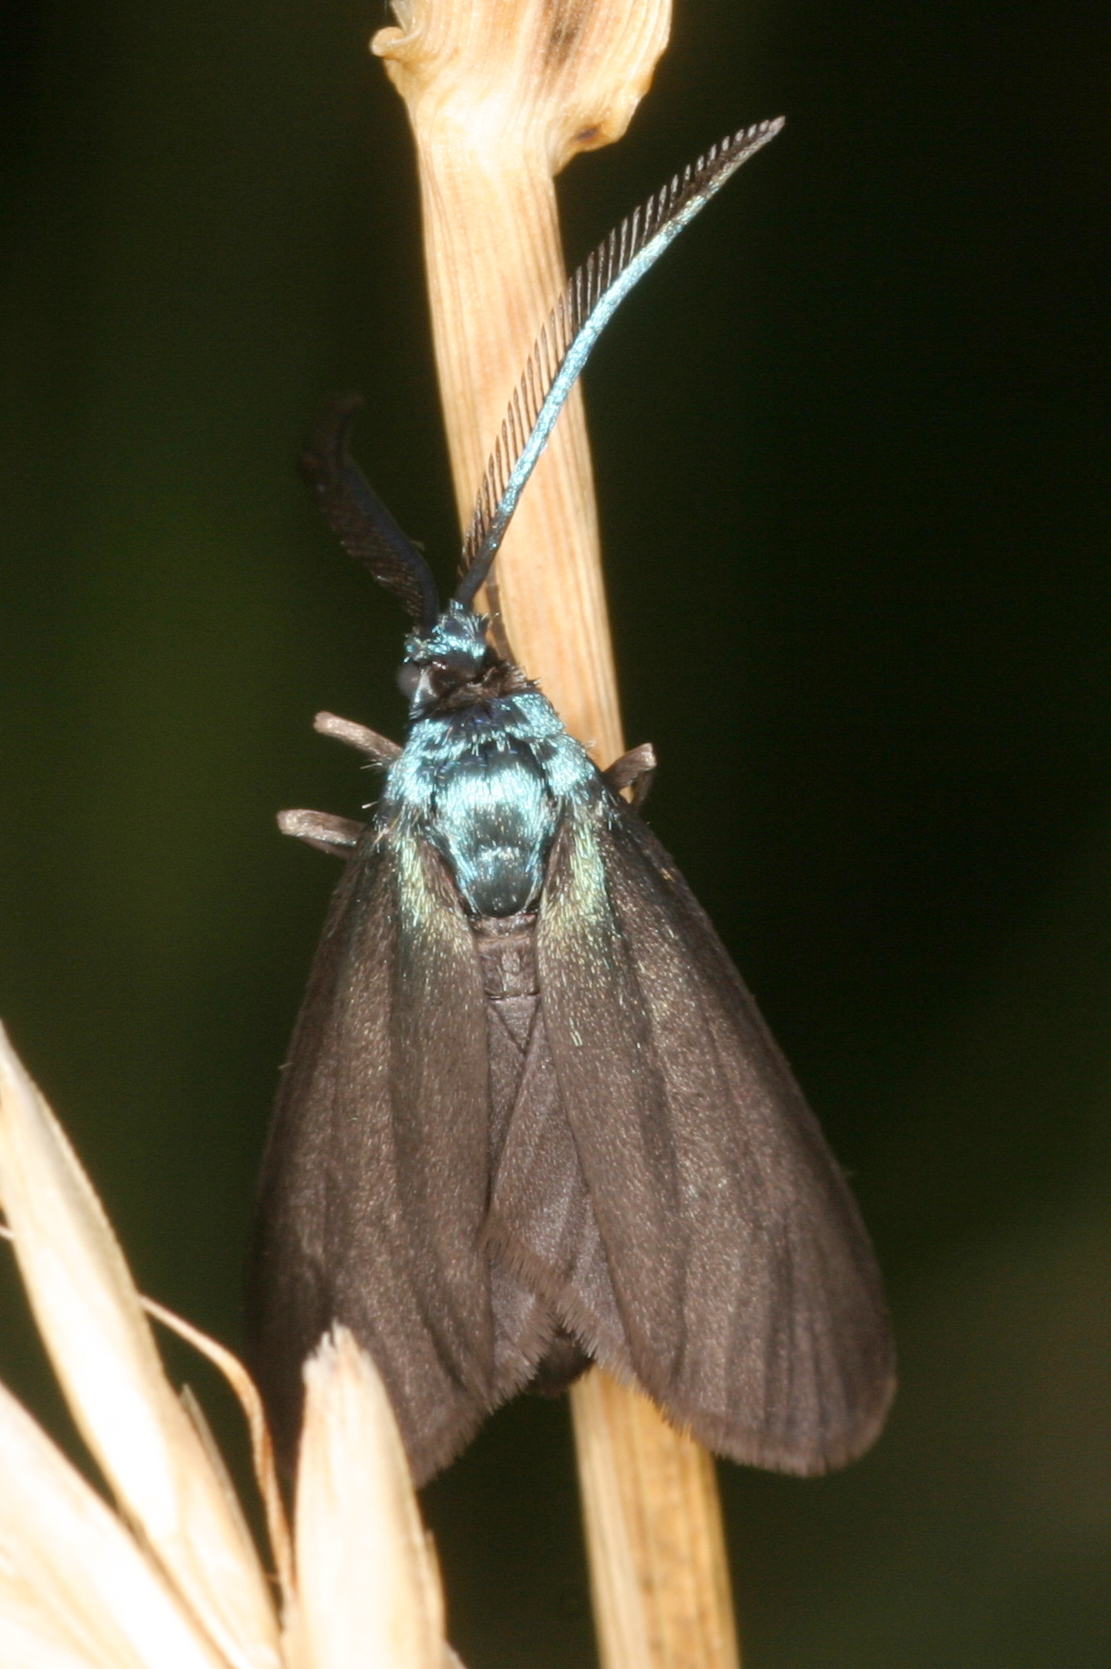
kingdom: Animalia
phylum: Arthropoda
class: Insecta
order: Lepidoptera
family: Zygaenidae
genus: Rhagades
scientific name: Rhagades pruni
